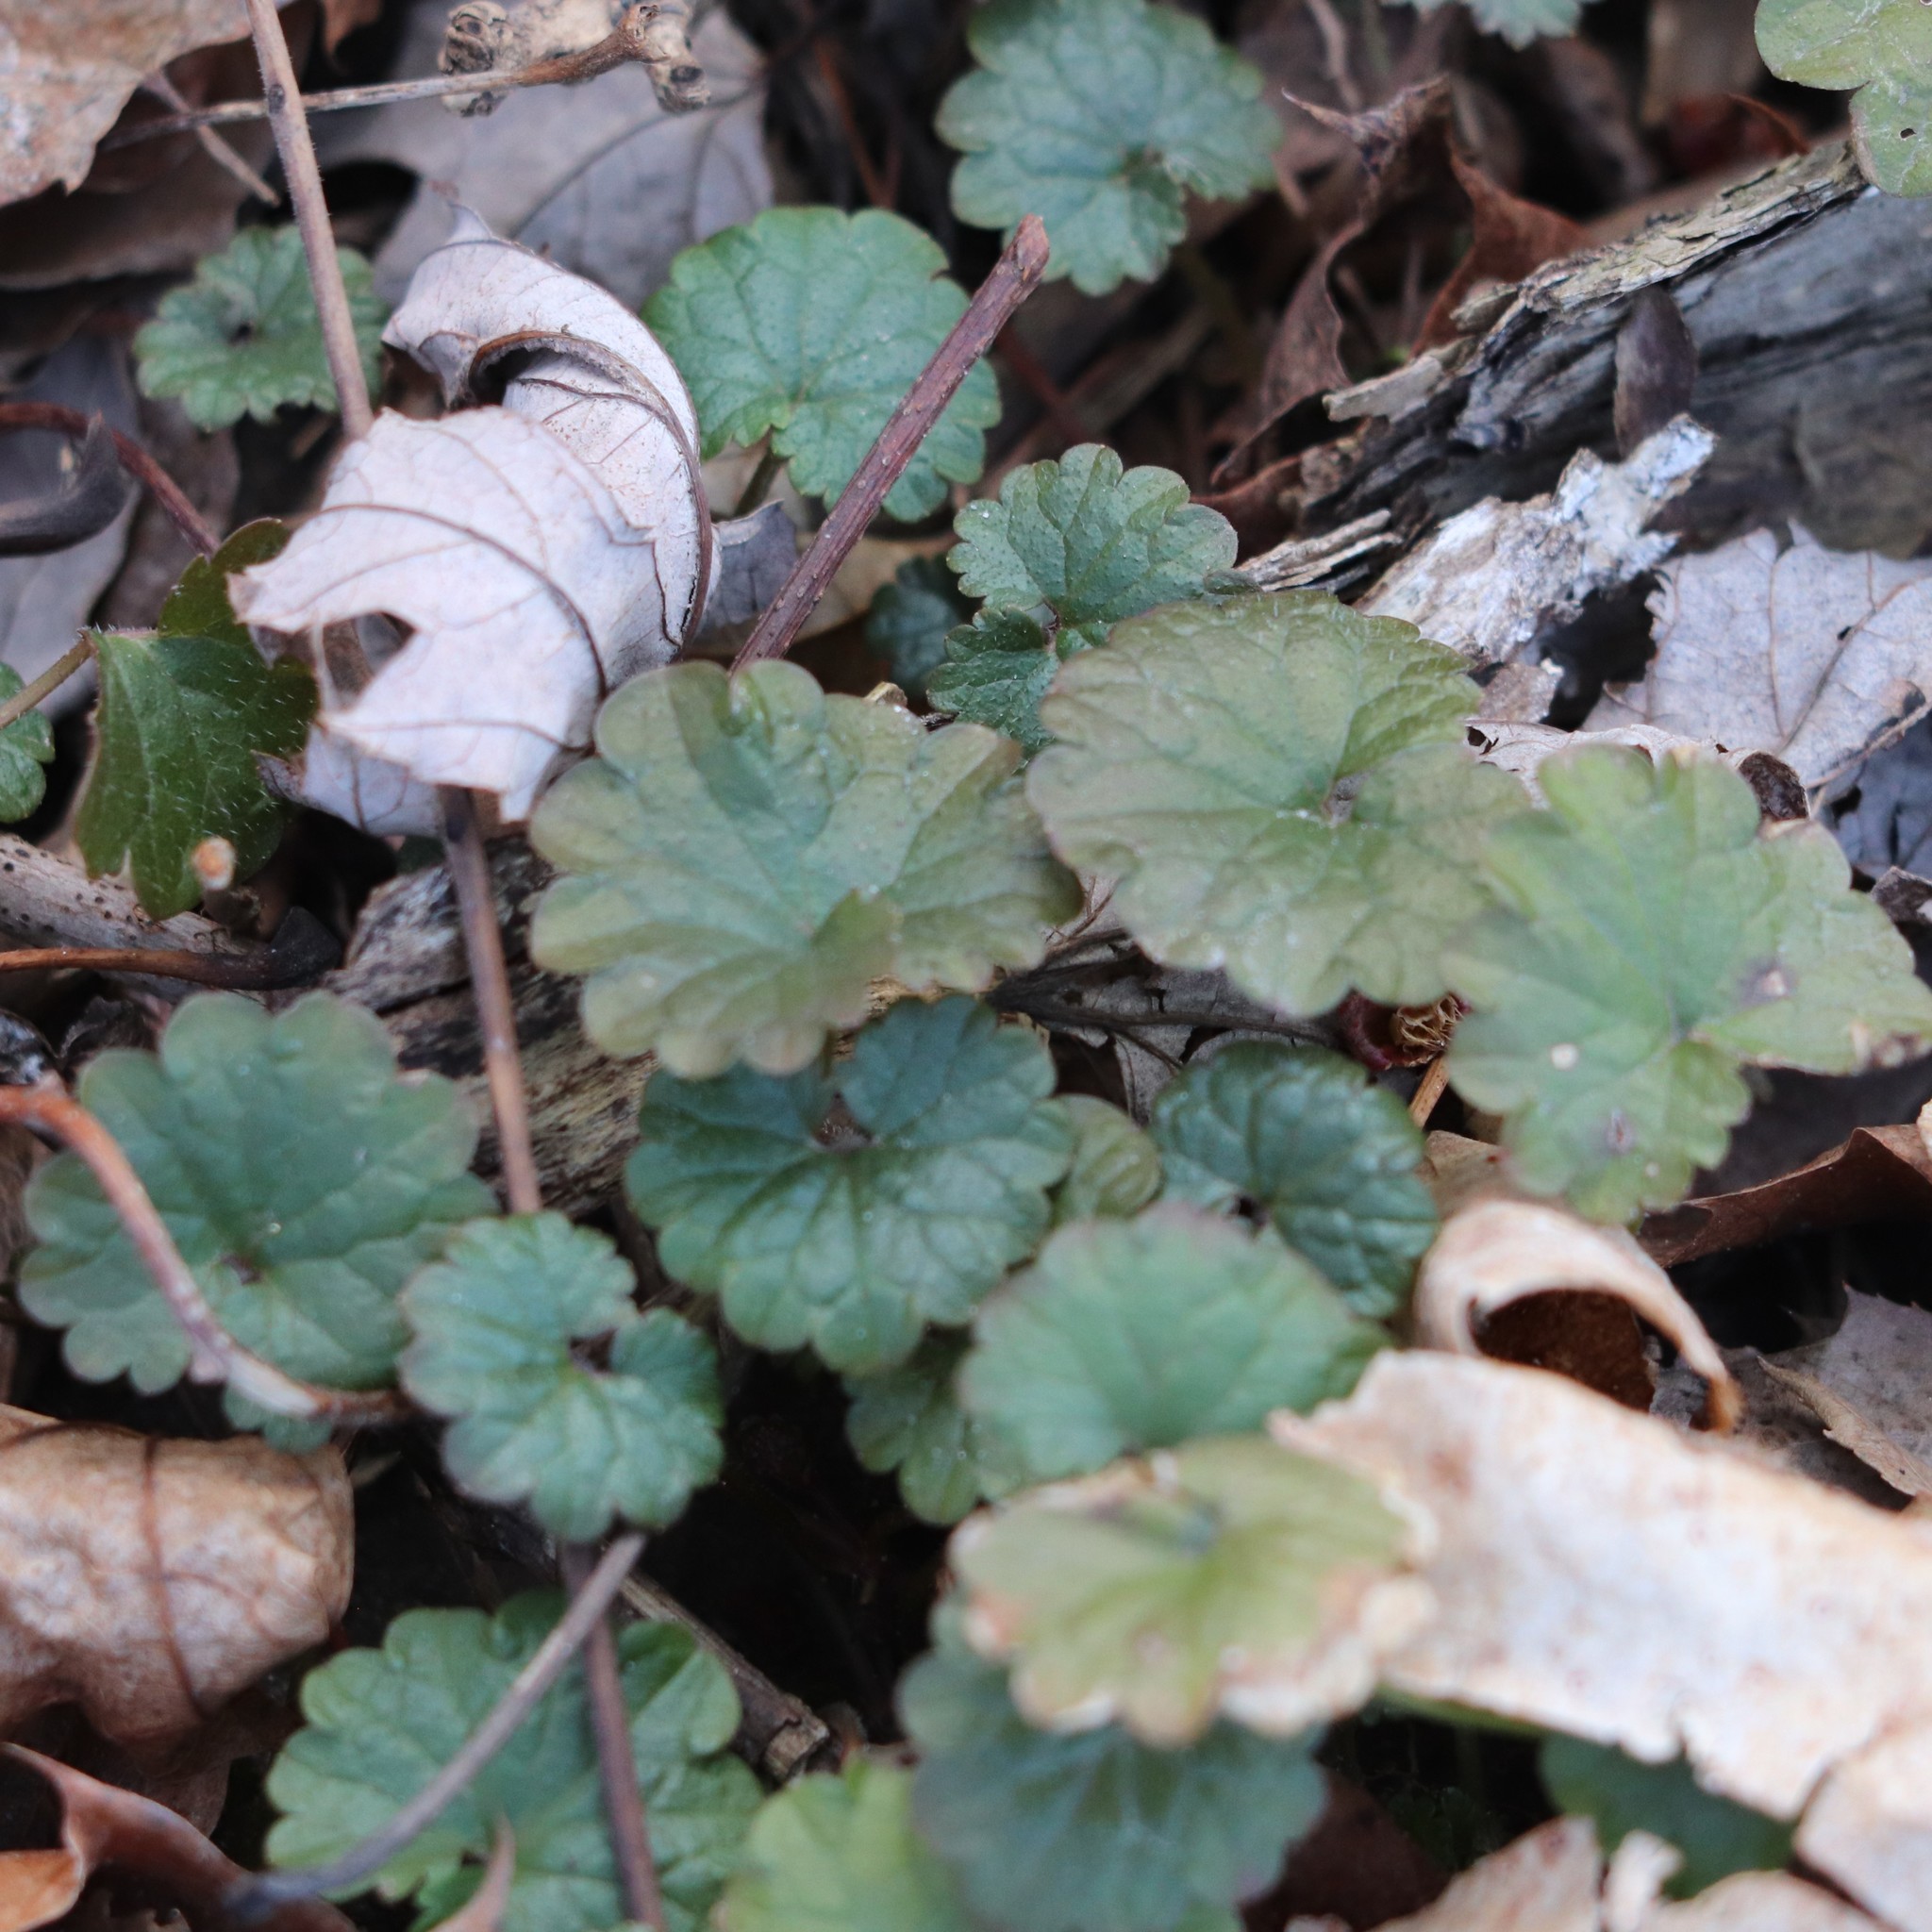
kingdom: Plantae
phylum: Tracheophyta
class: Magnoliopsida
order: Lamiales
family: Lamiaceae
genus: Glechoma
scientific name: Glechoma hederacea
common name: Ground ivy
